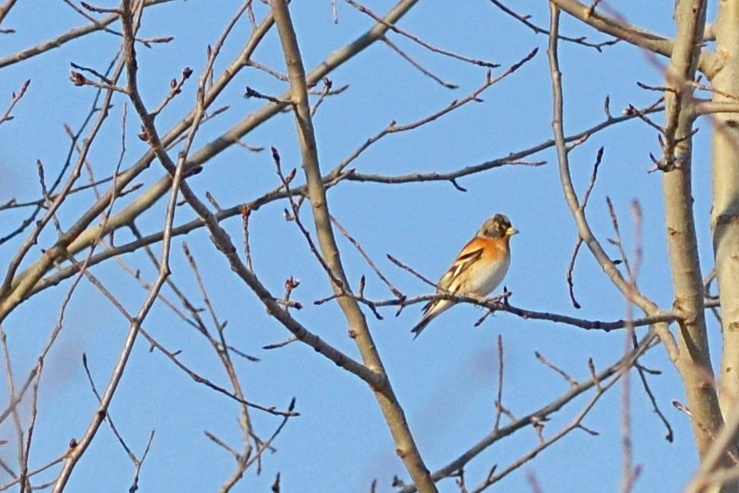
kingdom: Animalia
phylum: Chordata
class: Aves
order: Passeriformes
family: Fringillidae
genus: Fringilla
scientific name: Fringilla montifringilla
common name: Brambling
